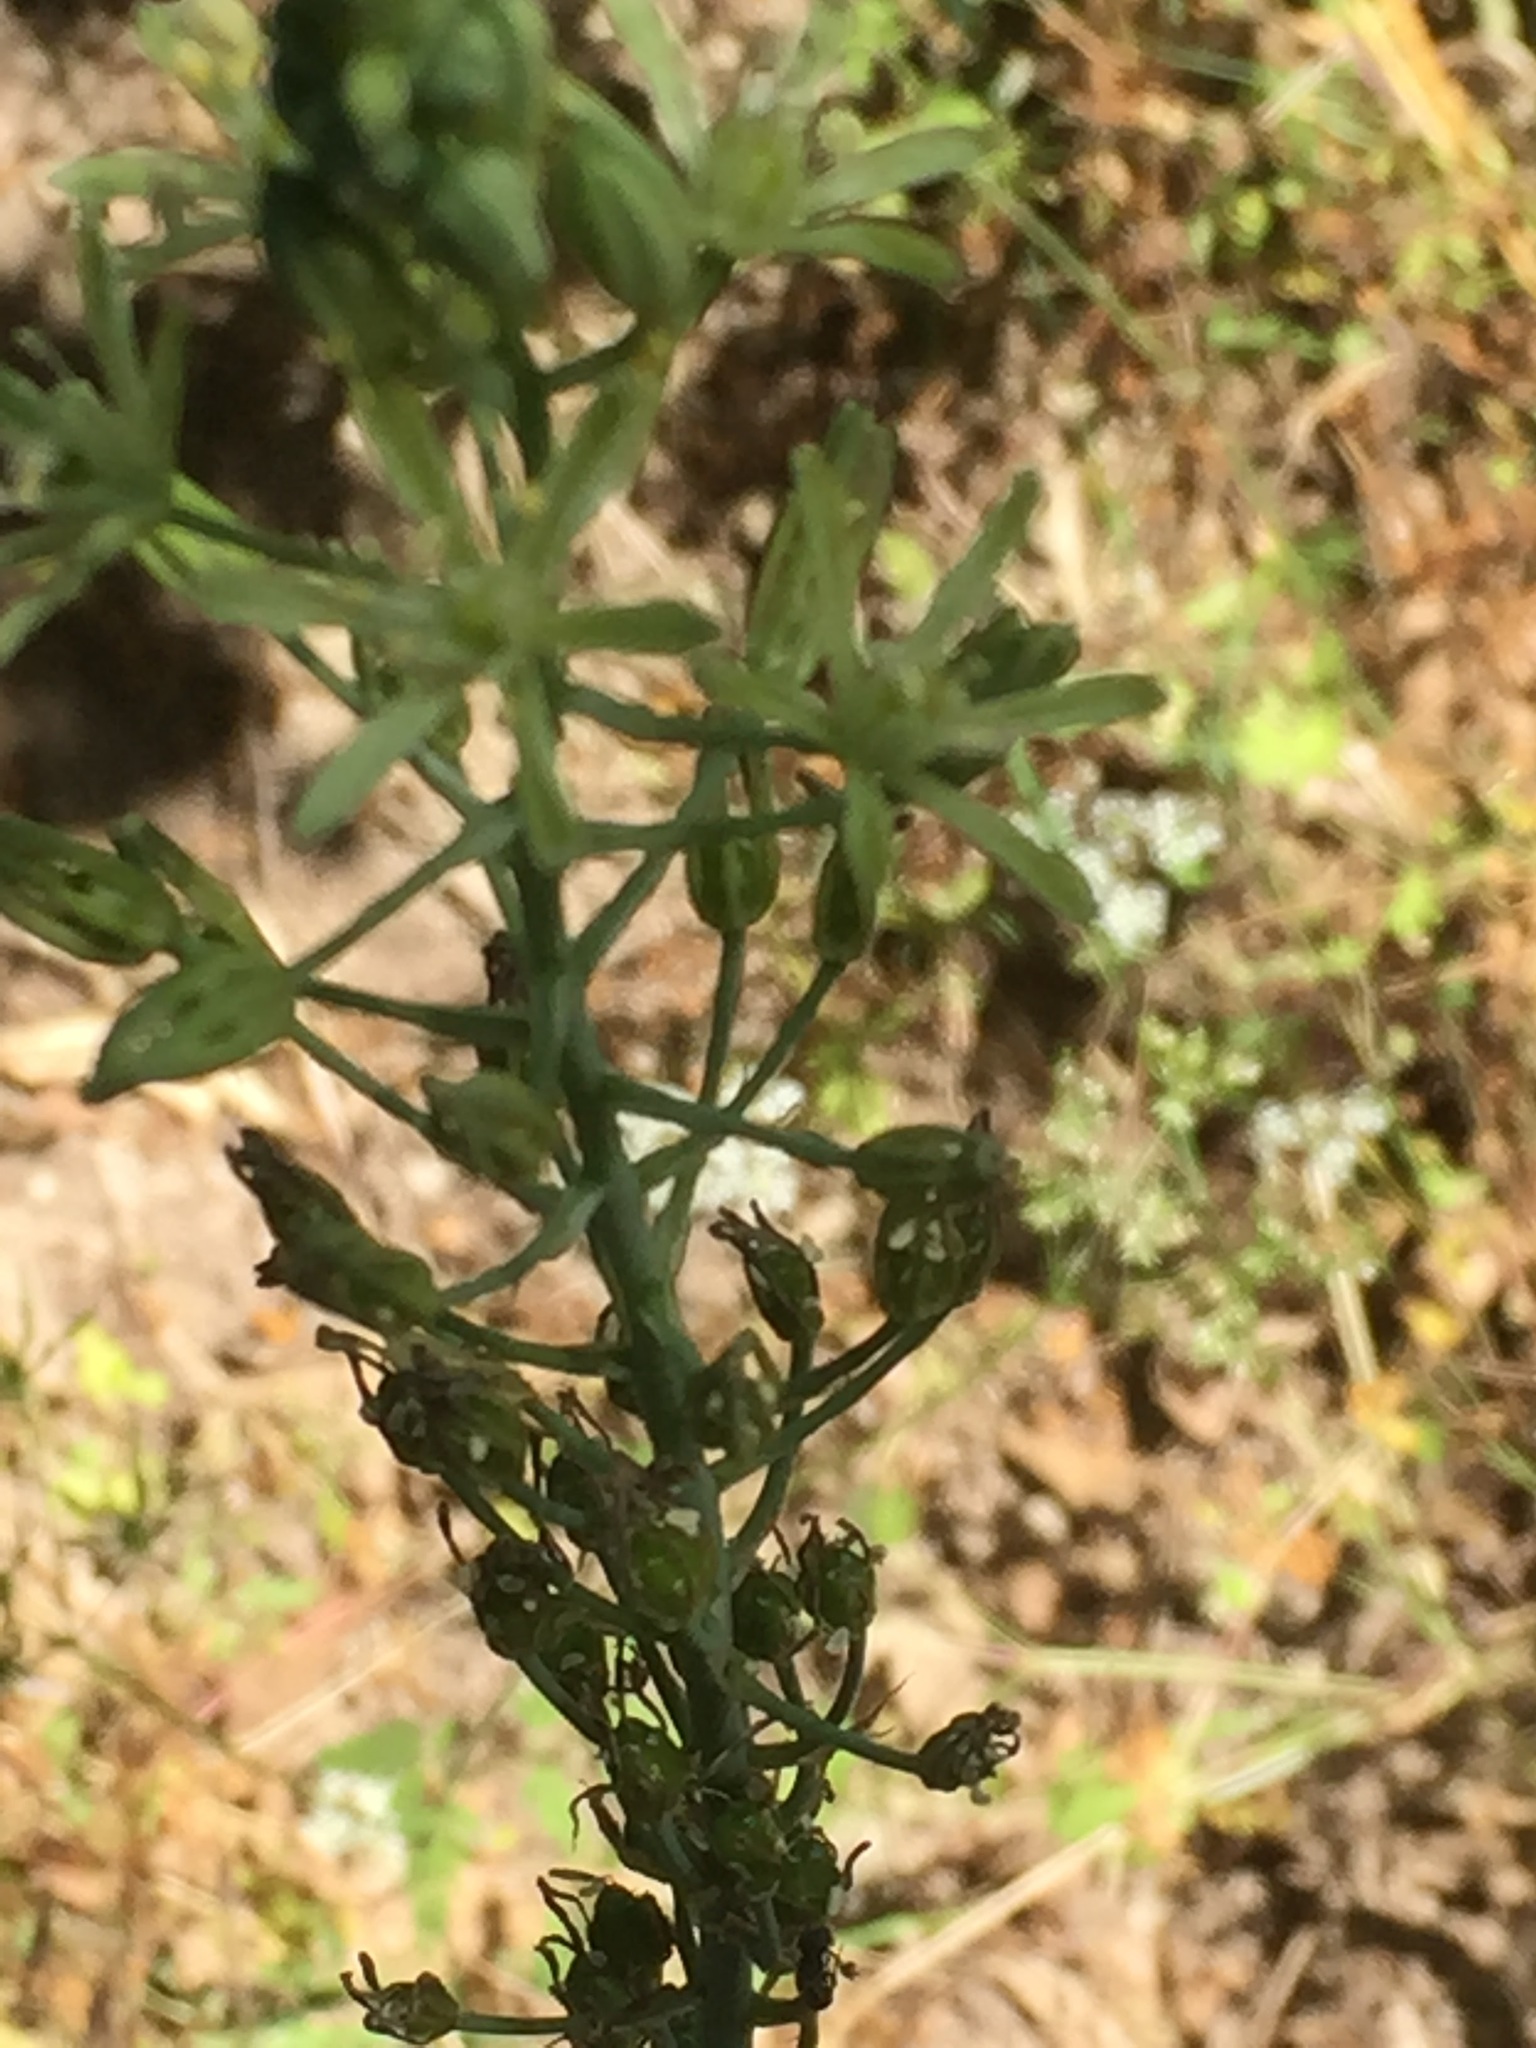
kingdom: Plantae
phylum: Tracheophyta
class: Liliopsida
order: Asparagales
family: Asparagaceae
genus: Ornithogalum
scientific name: Ornithogalum pyrenaicum
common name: Spiked star-of-bethlehem
